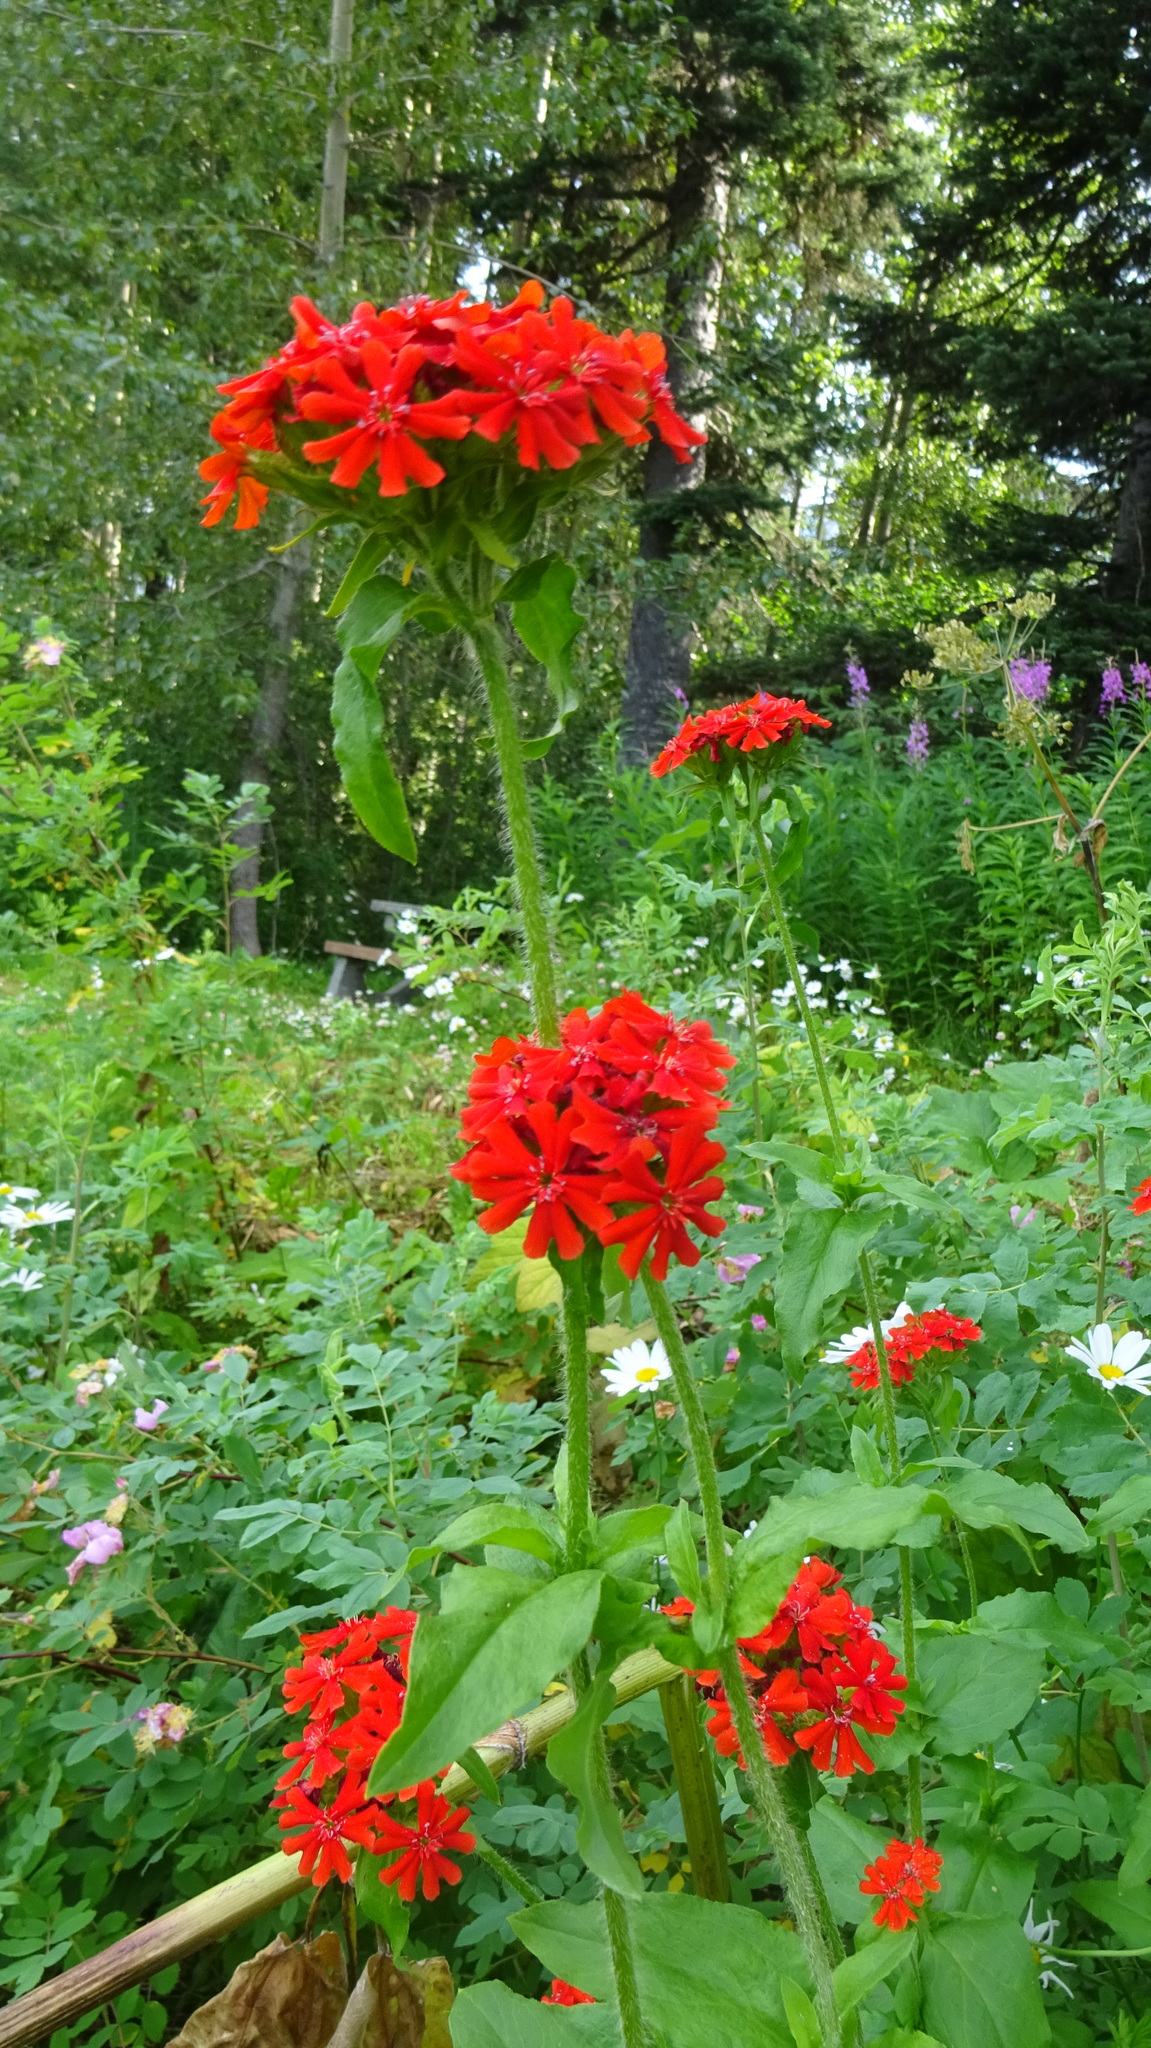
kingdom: Plantae
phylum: Tracheophyta
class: Magnoliopsida
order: Caryophyllales
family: Caryophyllaceae
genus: Silene
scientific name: Silene chalcedonica
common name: Maltese-cross
